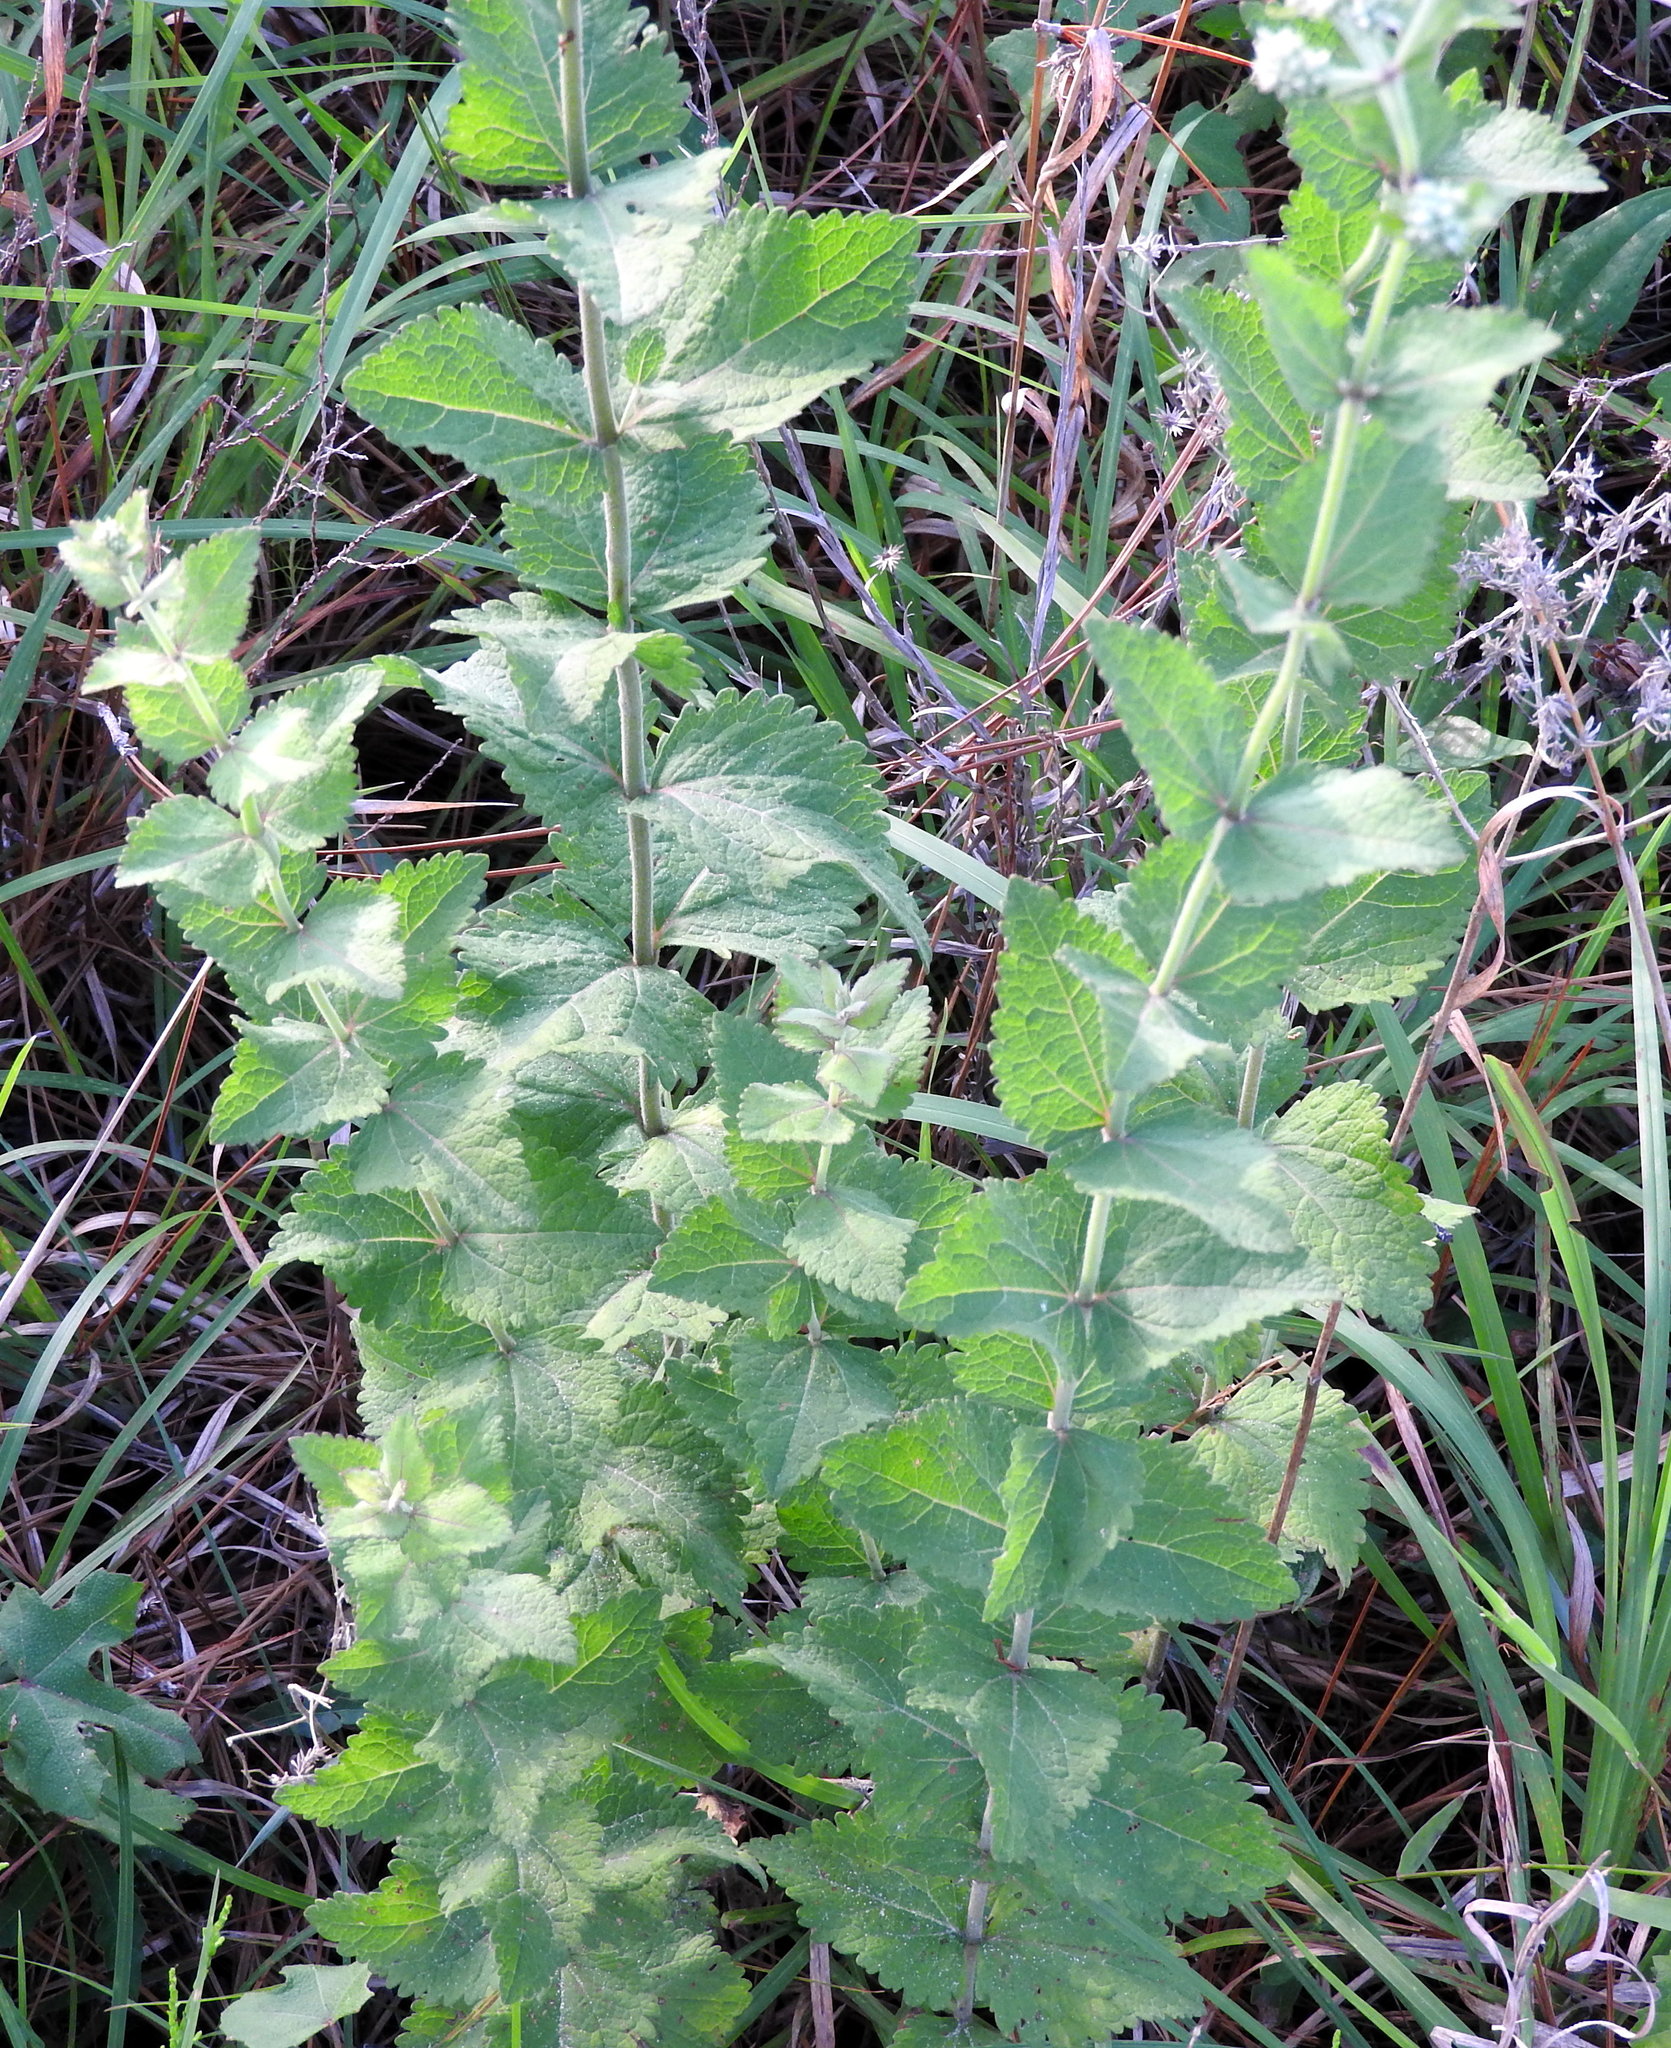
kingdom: Plantae
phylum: Tracheophyta
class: Magnoliopsida
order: Asterales
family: Asteraceae
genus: Eupatorium
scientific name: Eupatorium rotundifolium
